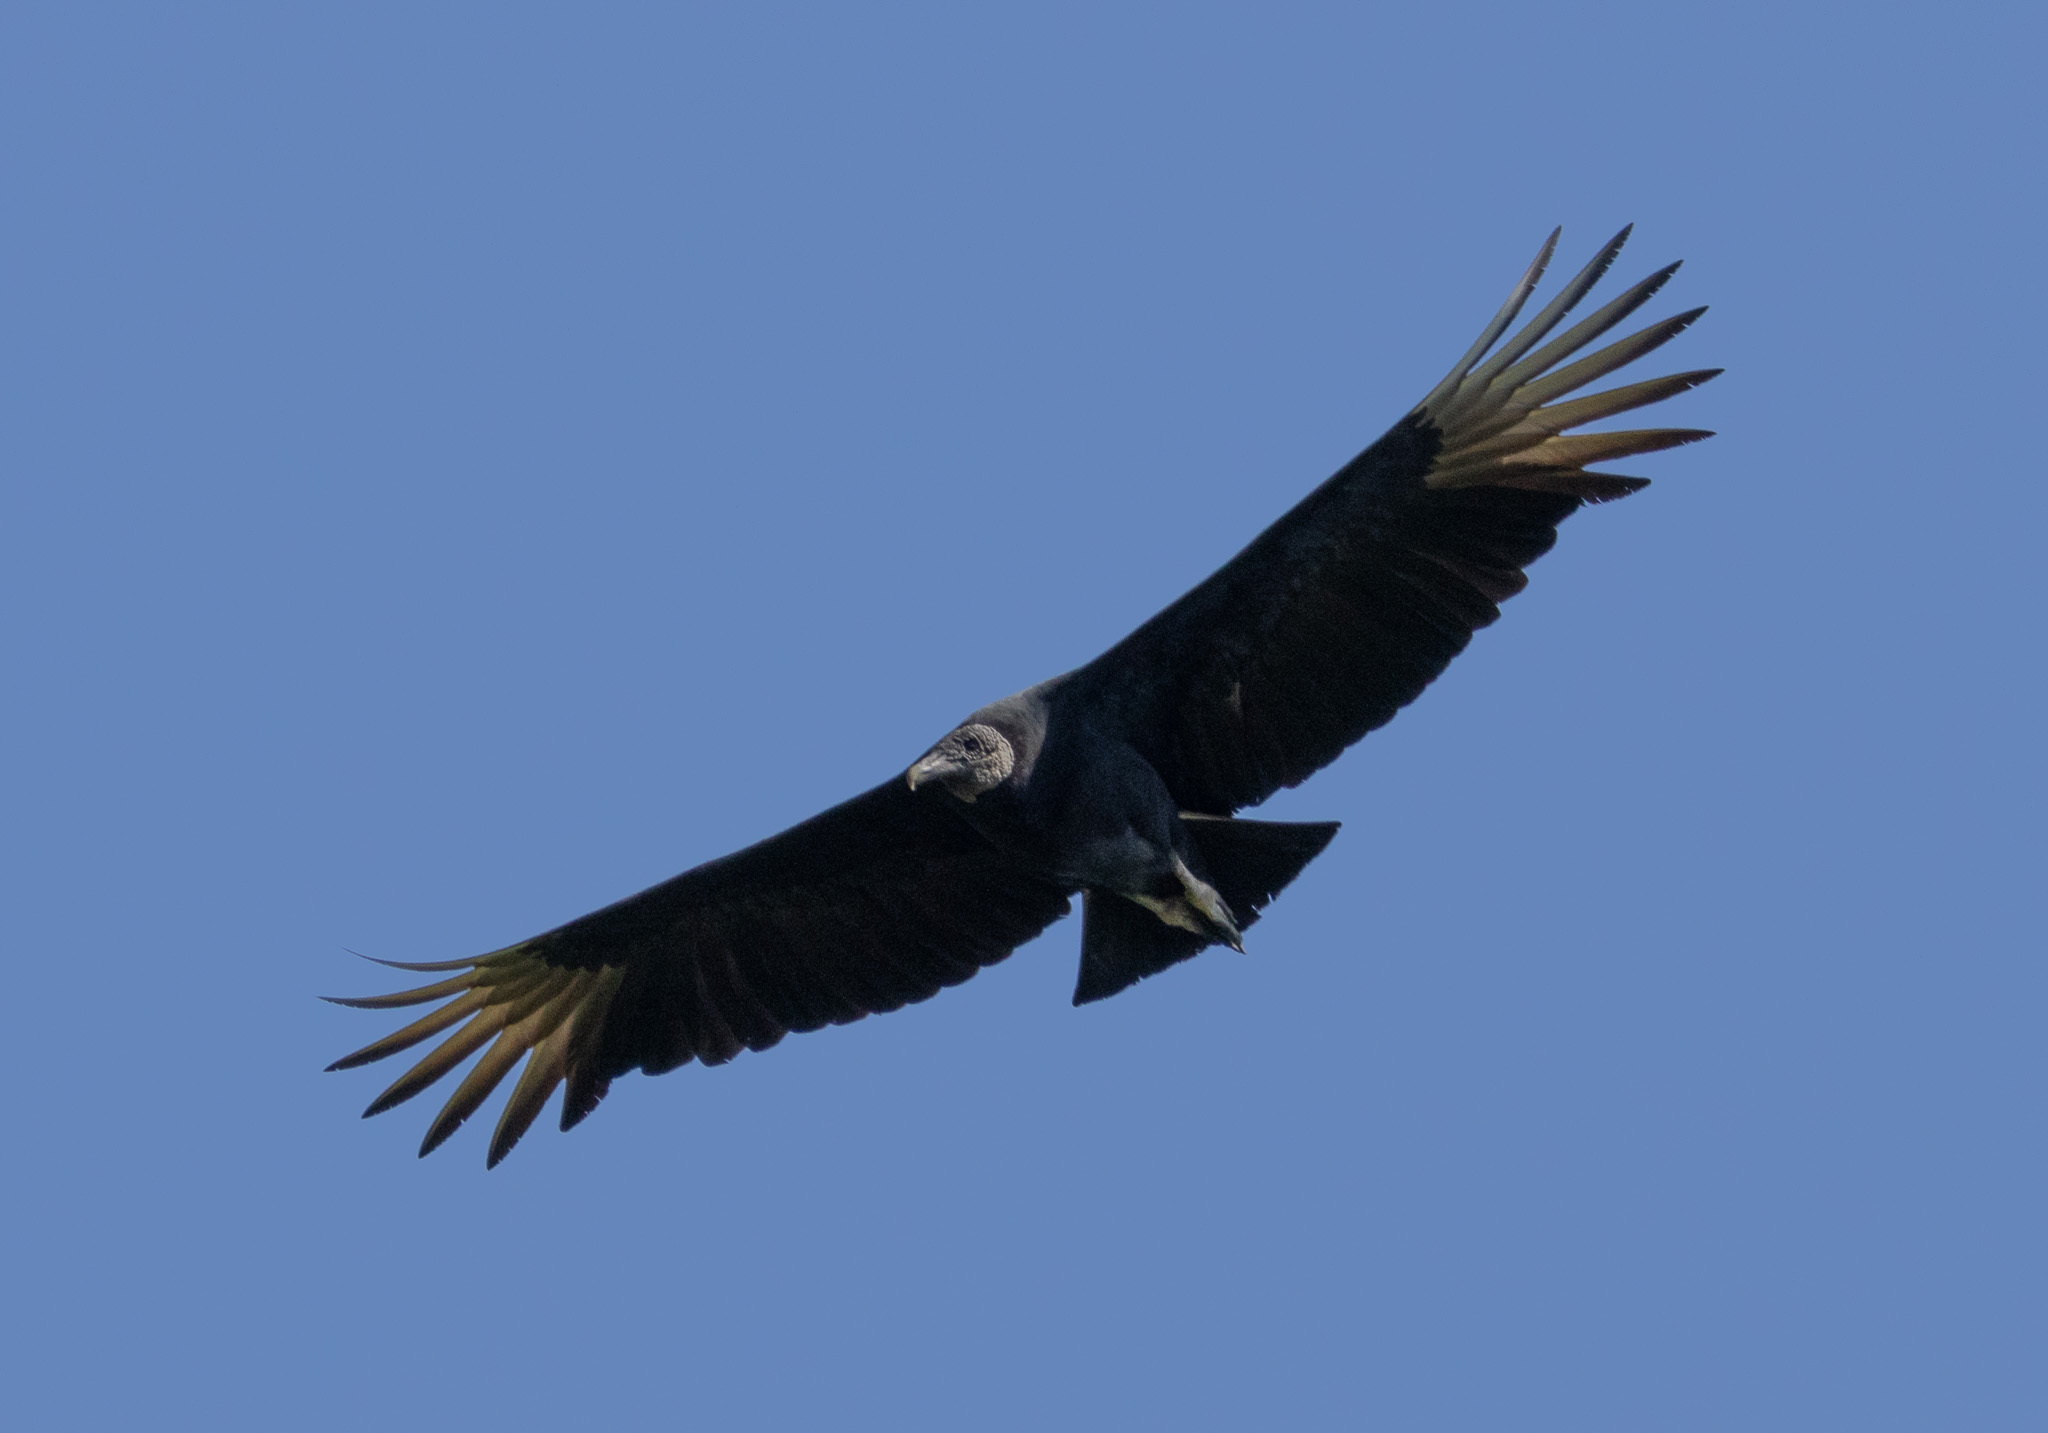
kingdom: Animalia
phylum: Chordata
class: Aves
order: Accipitriformes
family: Cathartidae
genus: Coragyps
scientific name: Coragyps atratus
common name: Black vulture
